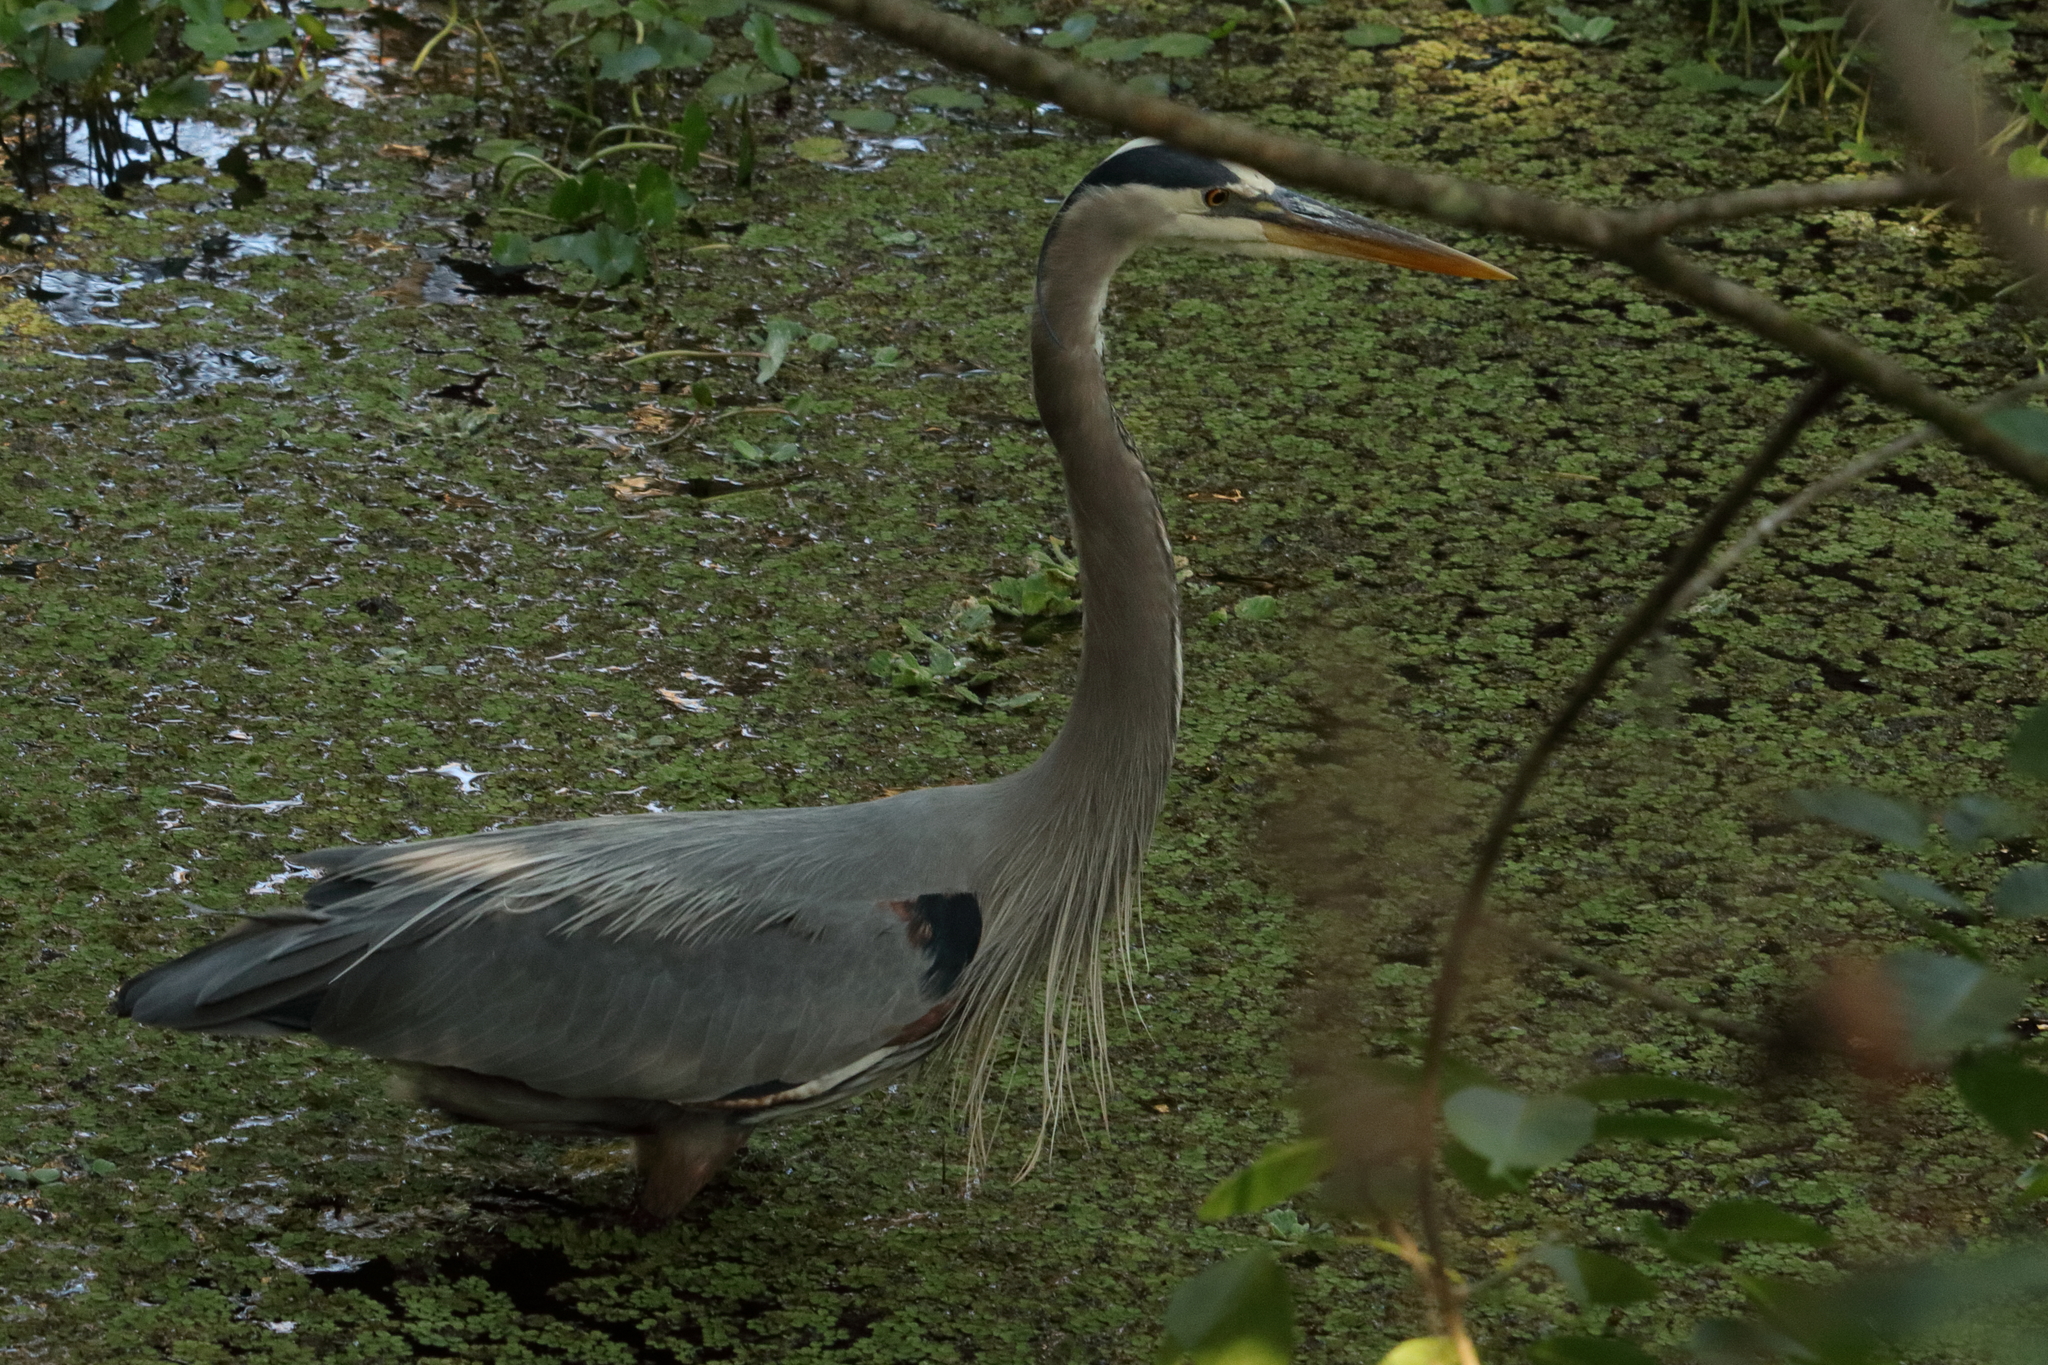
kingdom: Animalia
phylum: Chordata
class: Aves
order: Pelecaniformes
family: Ardeidae
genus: Ardea
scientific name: Ardea herodias
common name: Great blue heron
